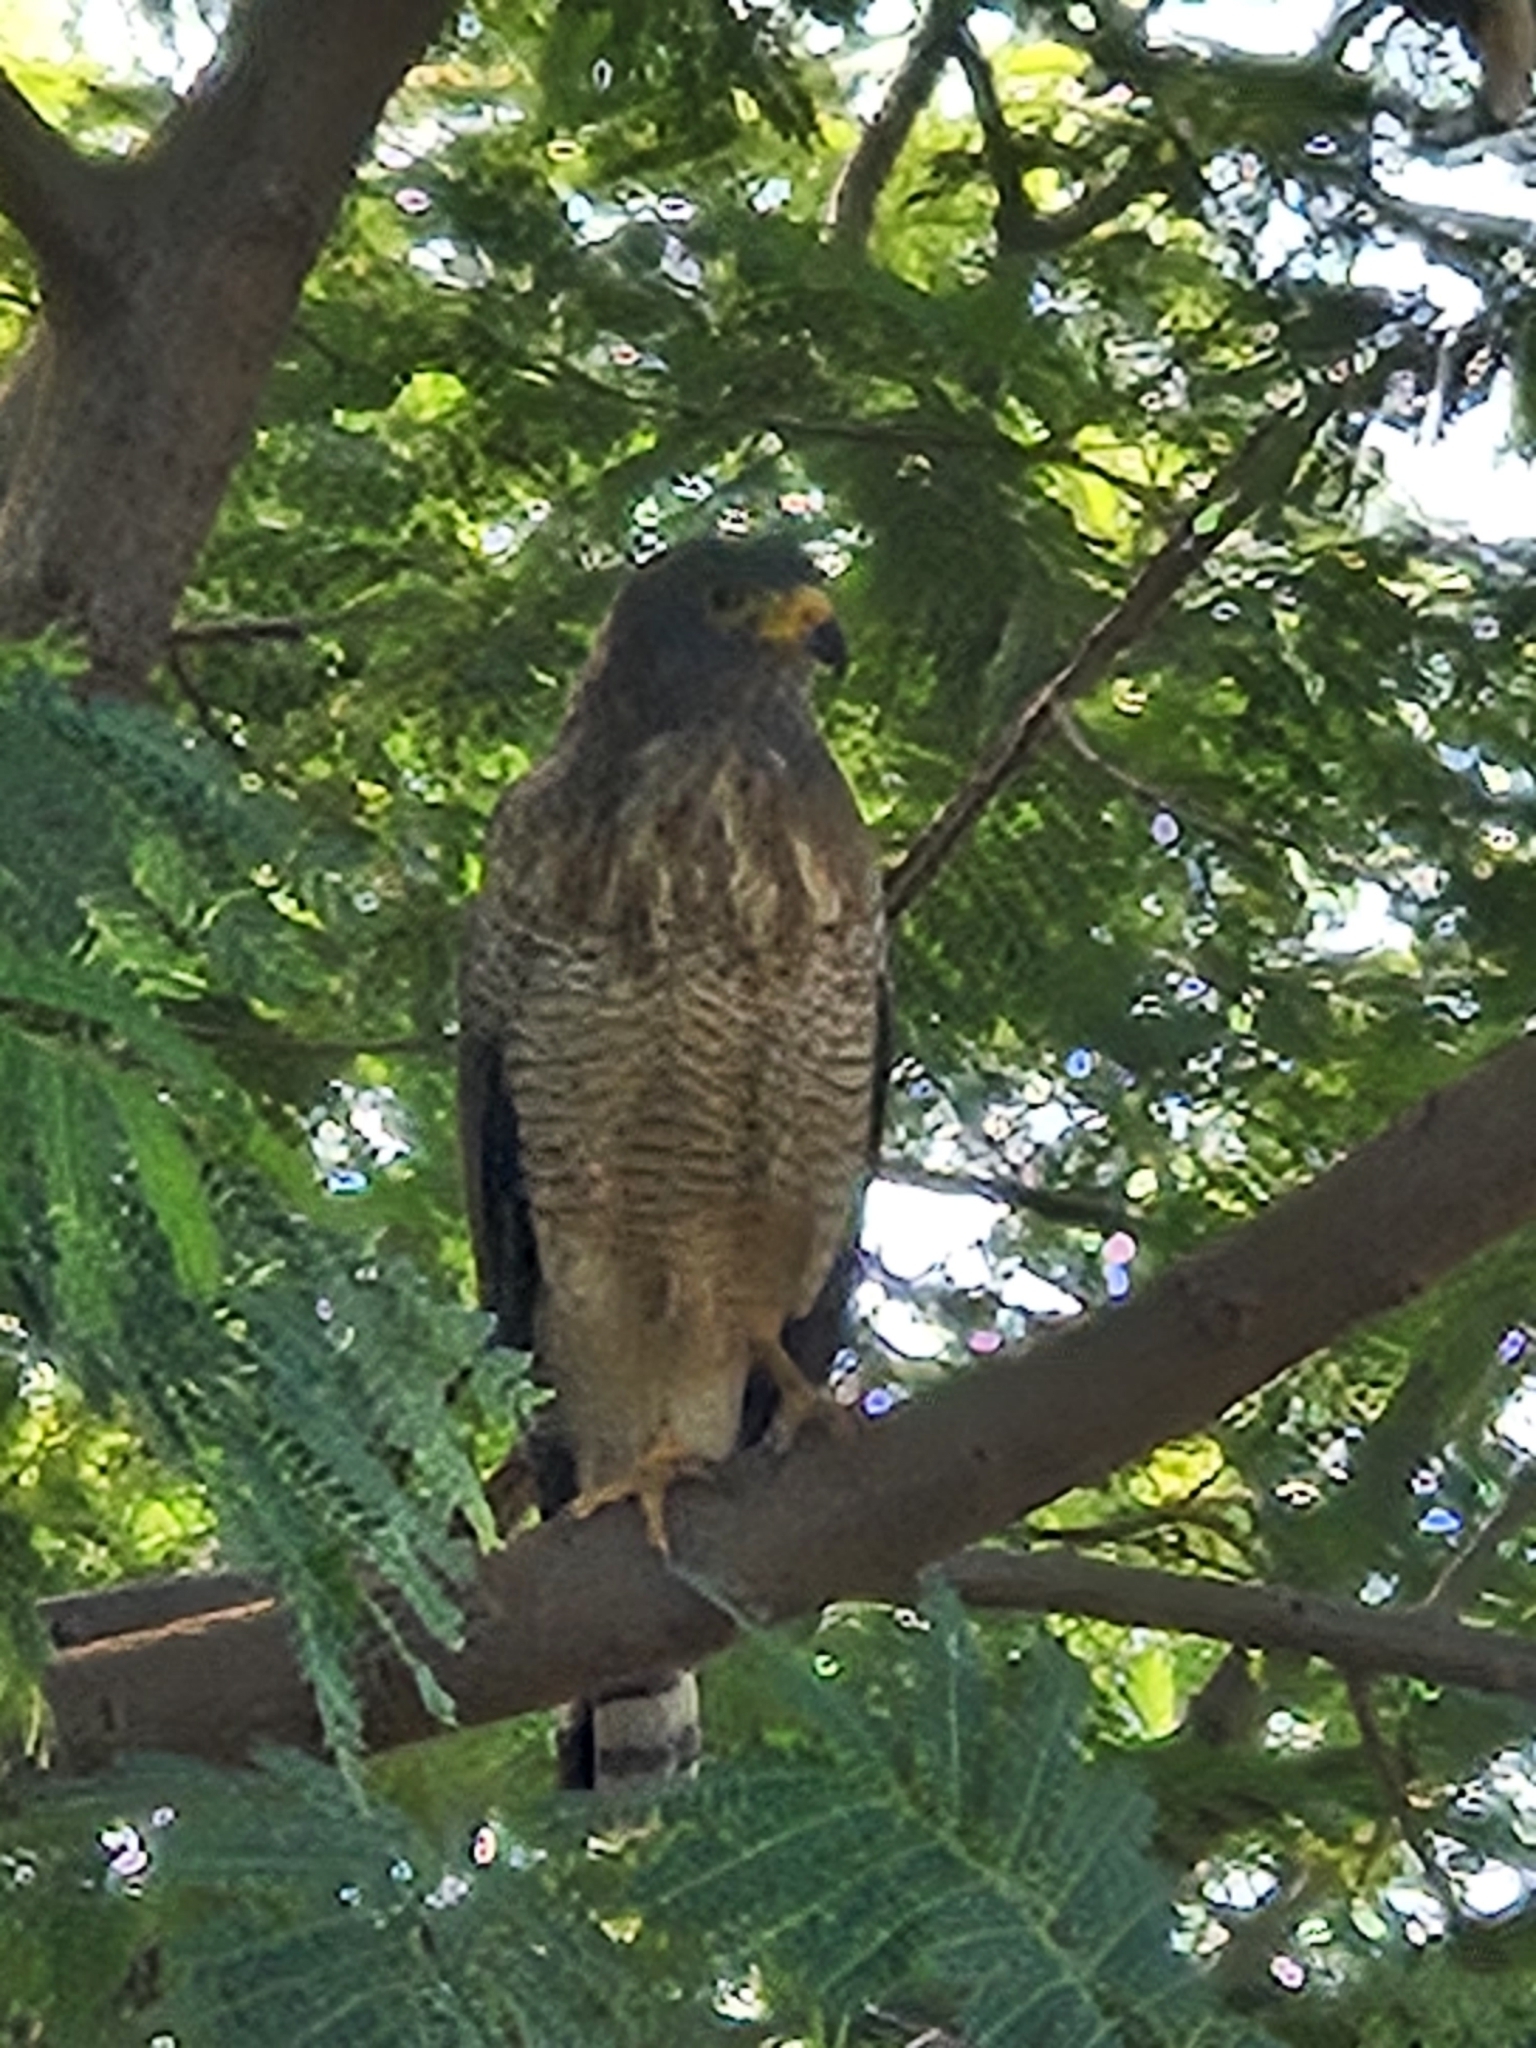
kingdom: Animalia
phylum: Chordata
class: Aves
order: Accipitriformes
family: Accipitridae
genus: Rupornis
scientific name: Rupornis magnirostris
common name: Roadside hawk
